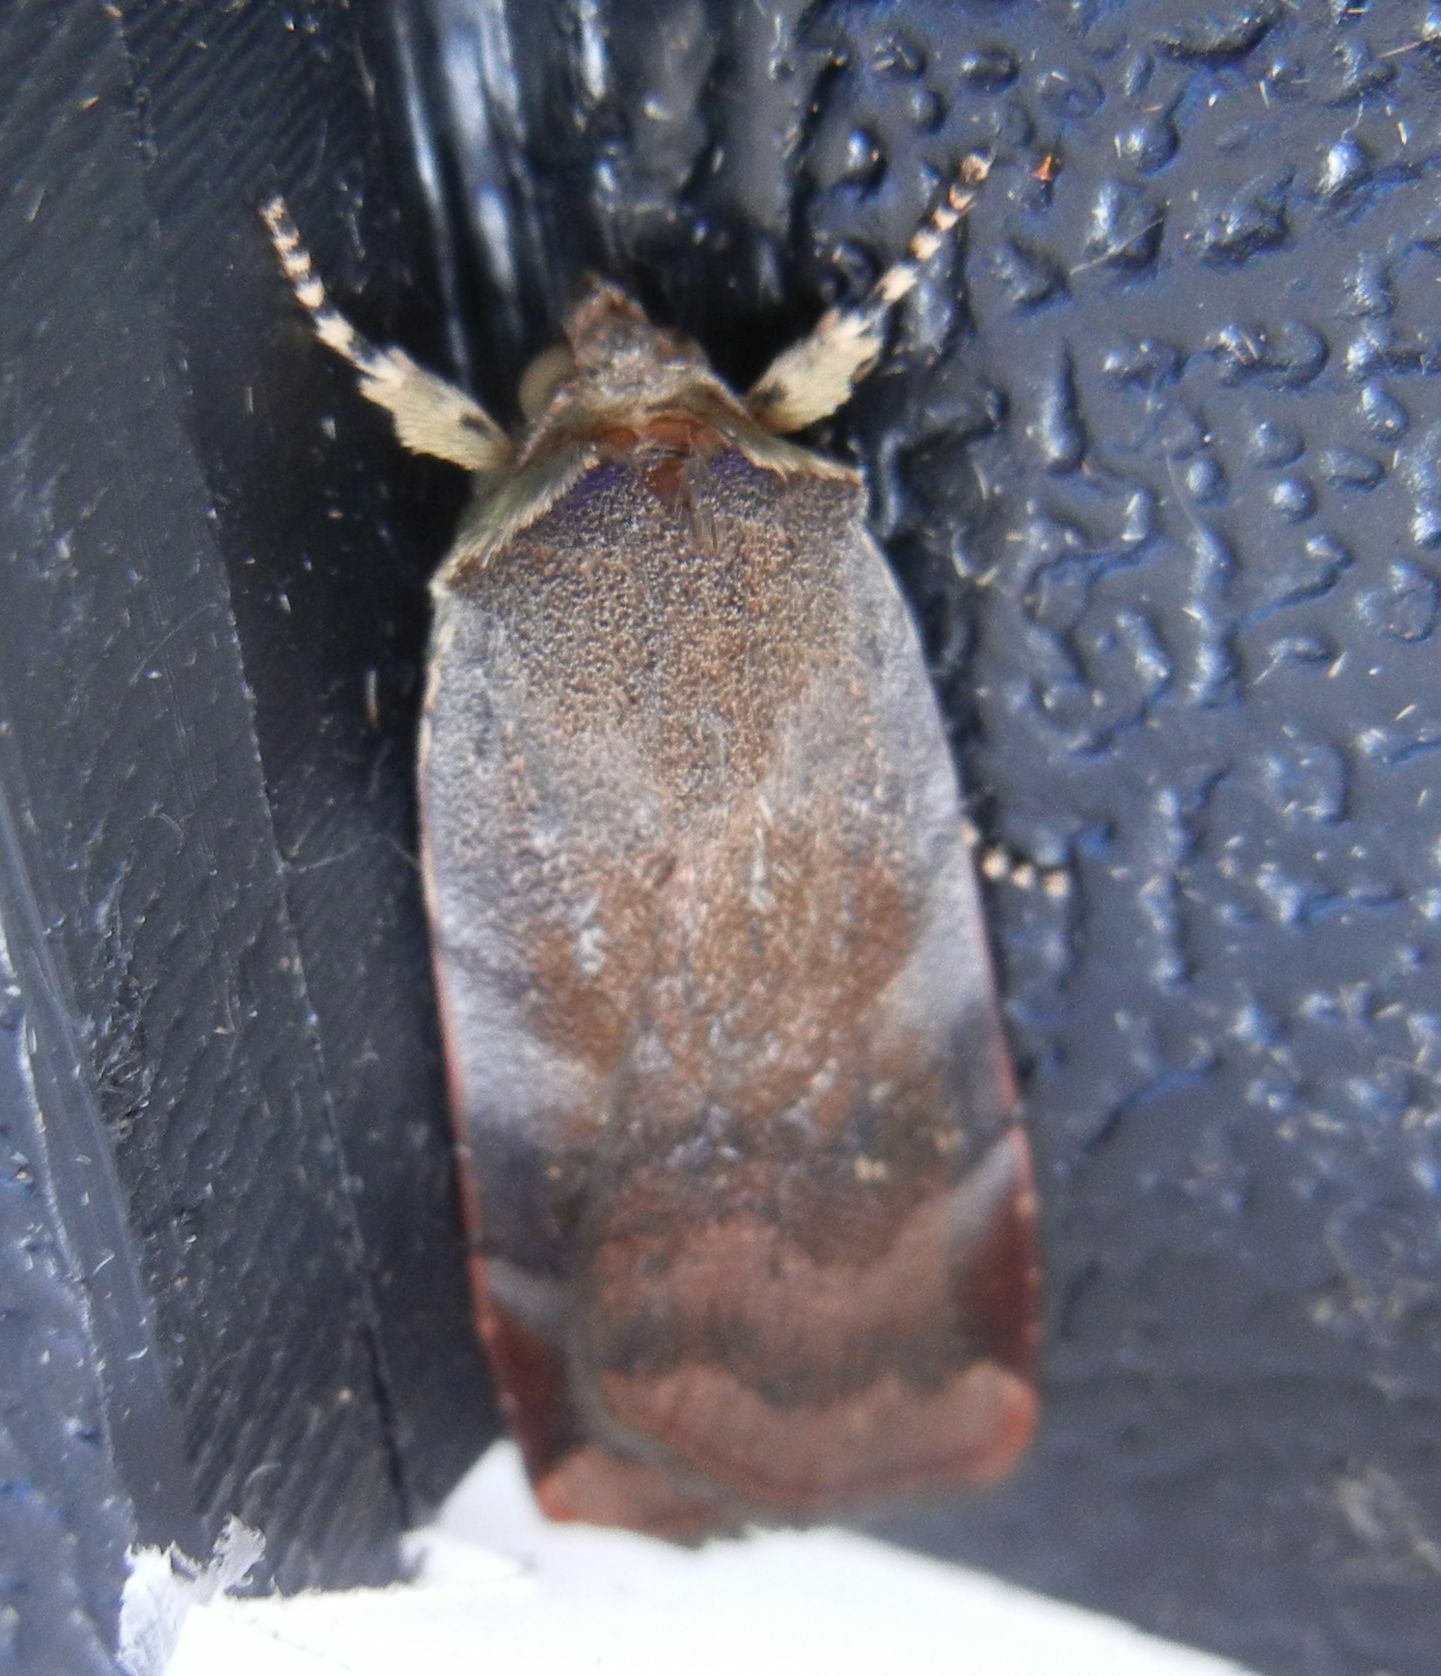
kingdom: Animalia
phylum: Arthropoda
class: Insecta
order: Lepidoptera
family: Noctuidae
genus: Noctua
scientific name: Noctua janthe
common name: Lesser broad-bordered yellow underwing
